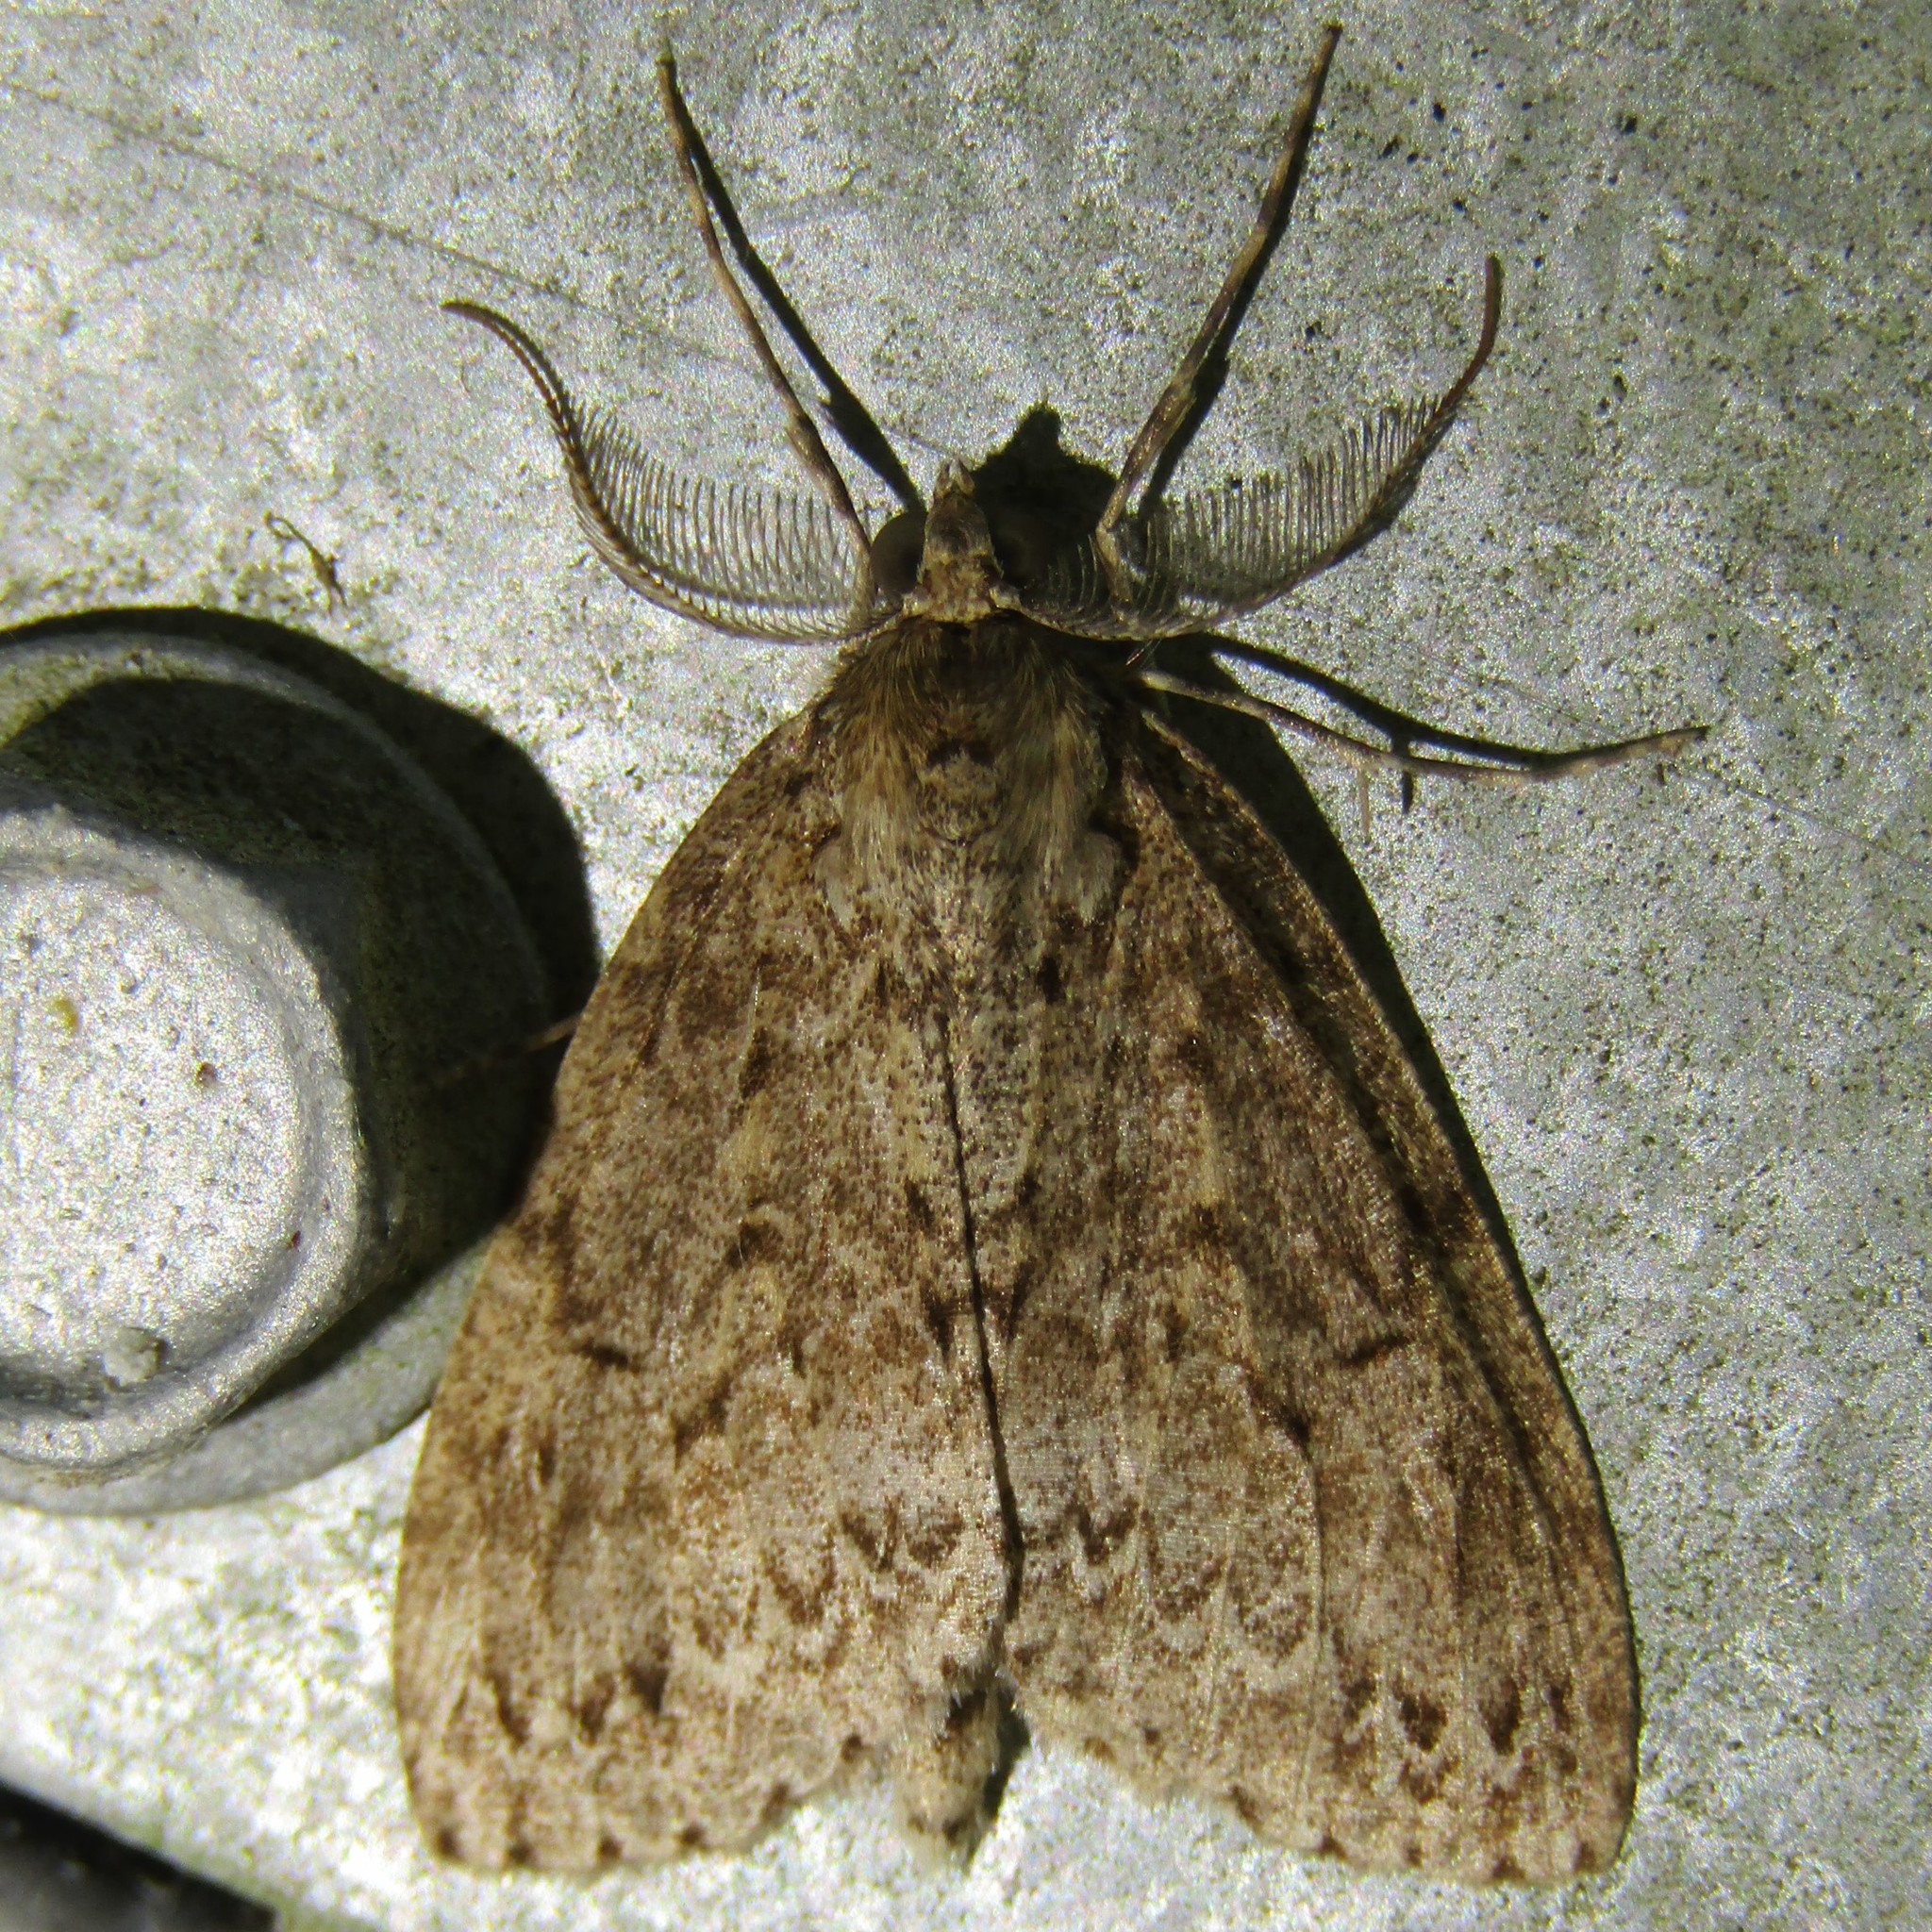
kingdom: Animalia
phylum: Arthropoda
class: Insecta
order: Lepidoptera
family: Geometridae
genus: Pseudocoremia
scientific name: Pseudocoremia fenerata
